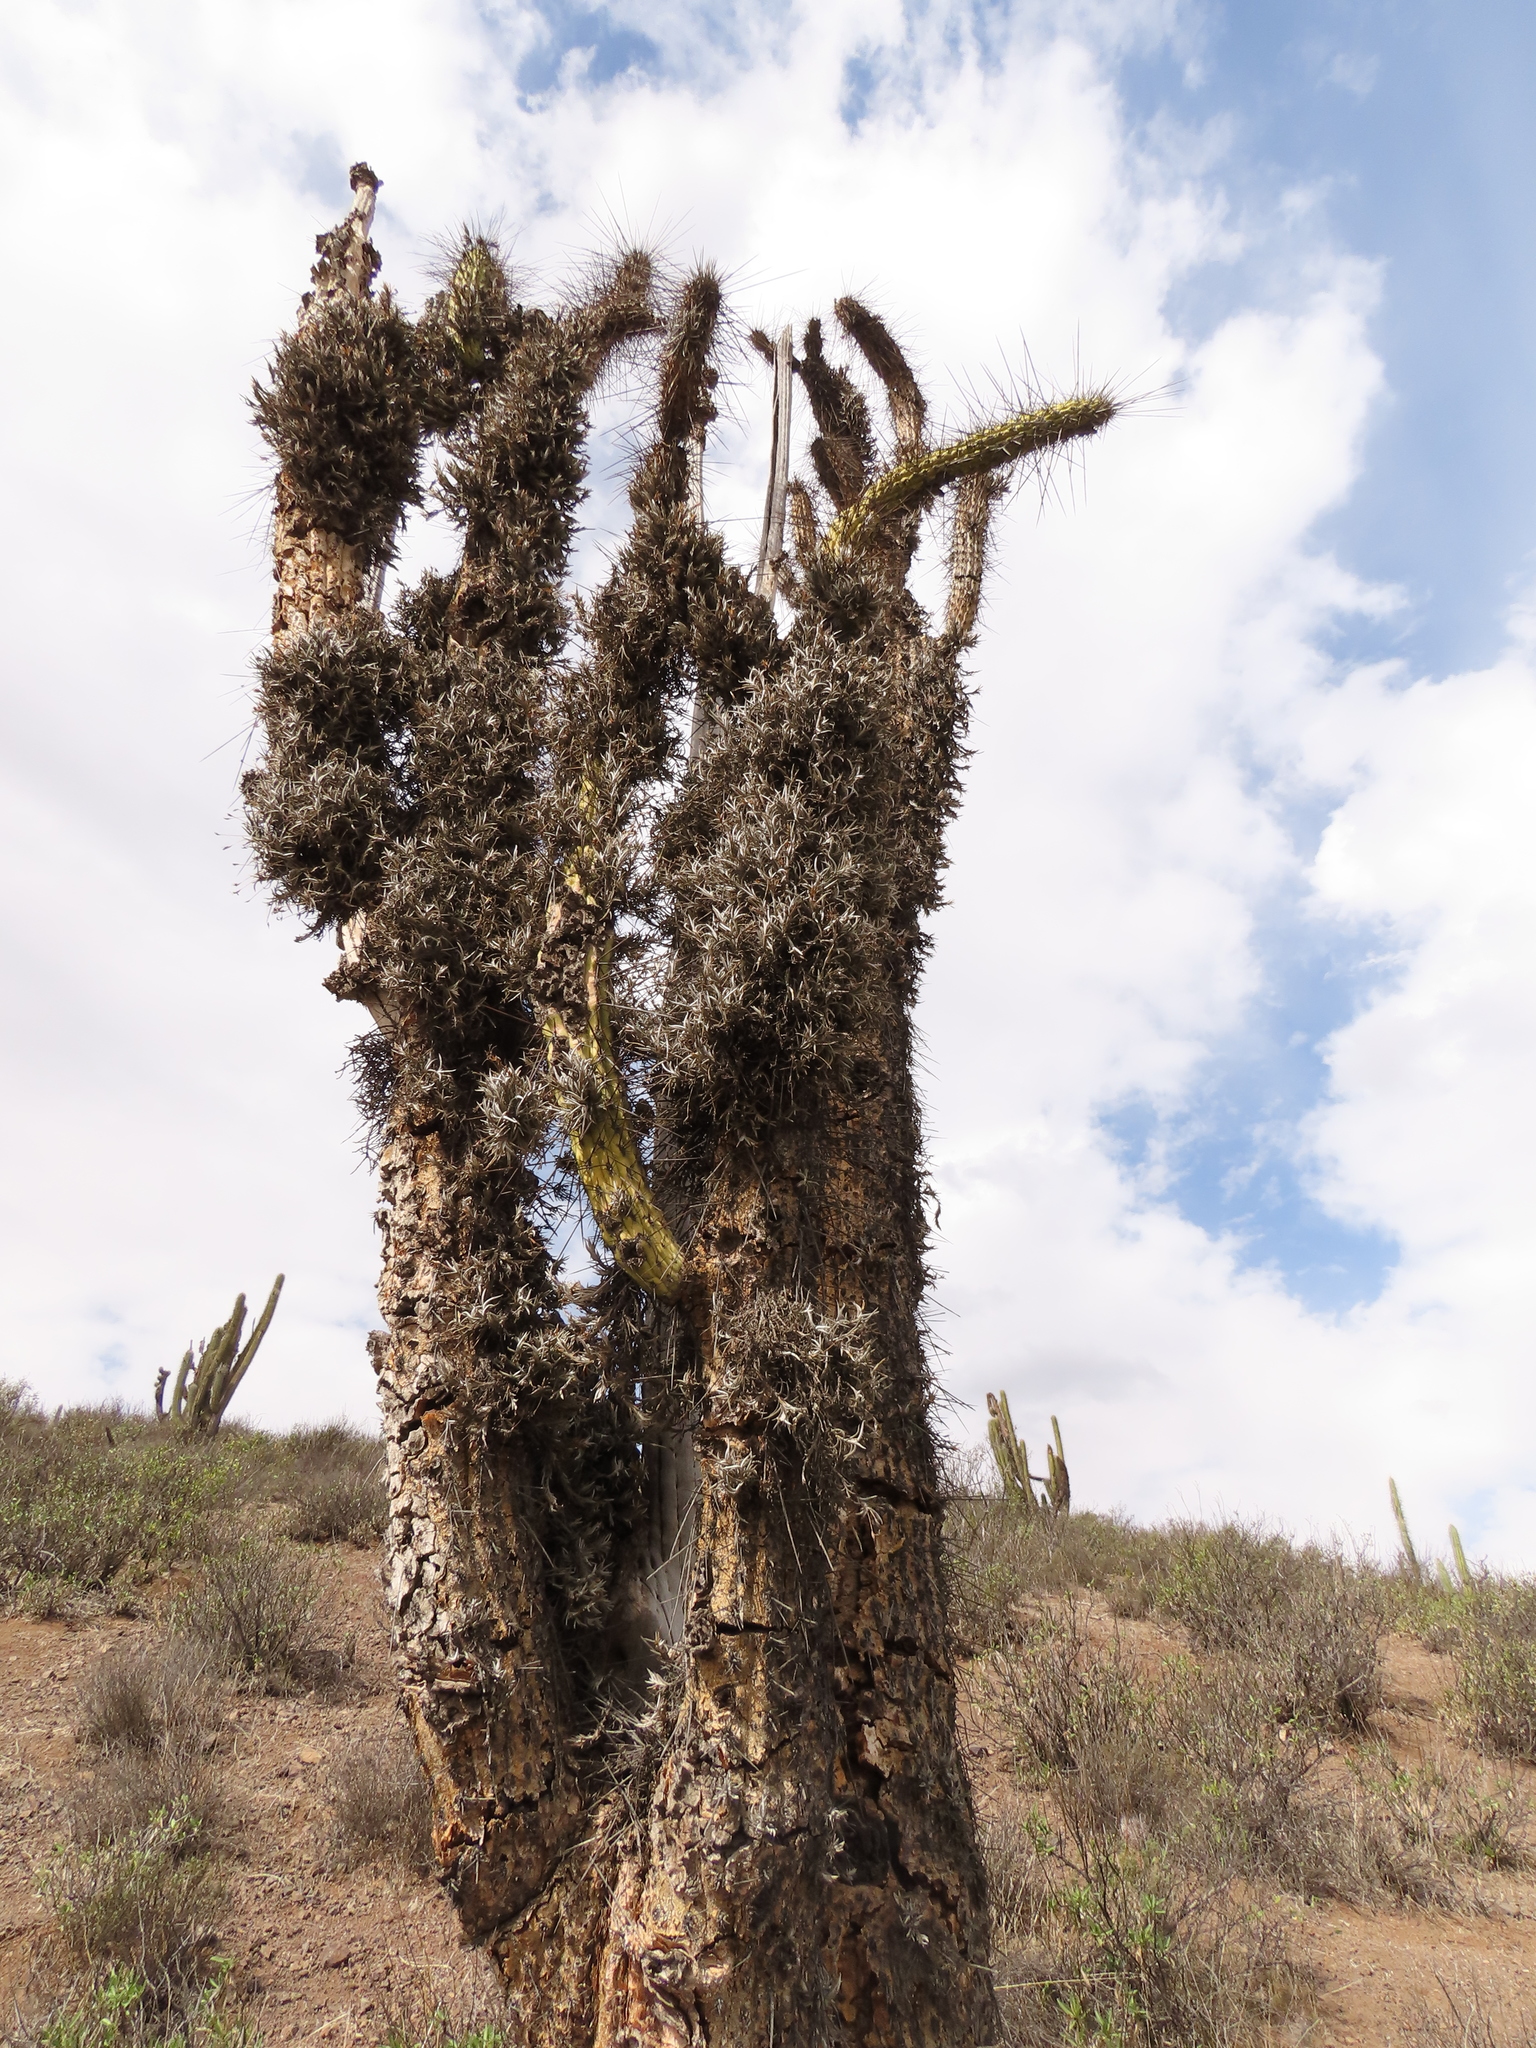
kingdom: Plantae
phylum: Tracheophyta
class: Liliopsida
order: Poales
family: Bromeliaceae
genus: Tillandsia
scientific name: Tillandsia virescens
